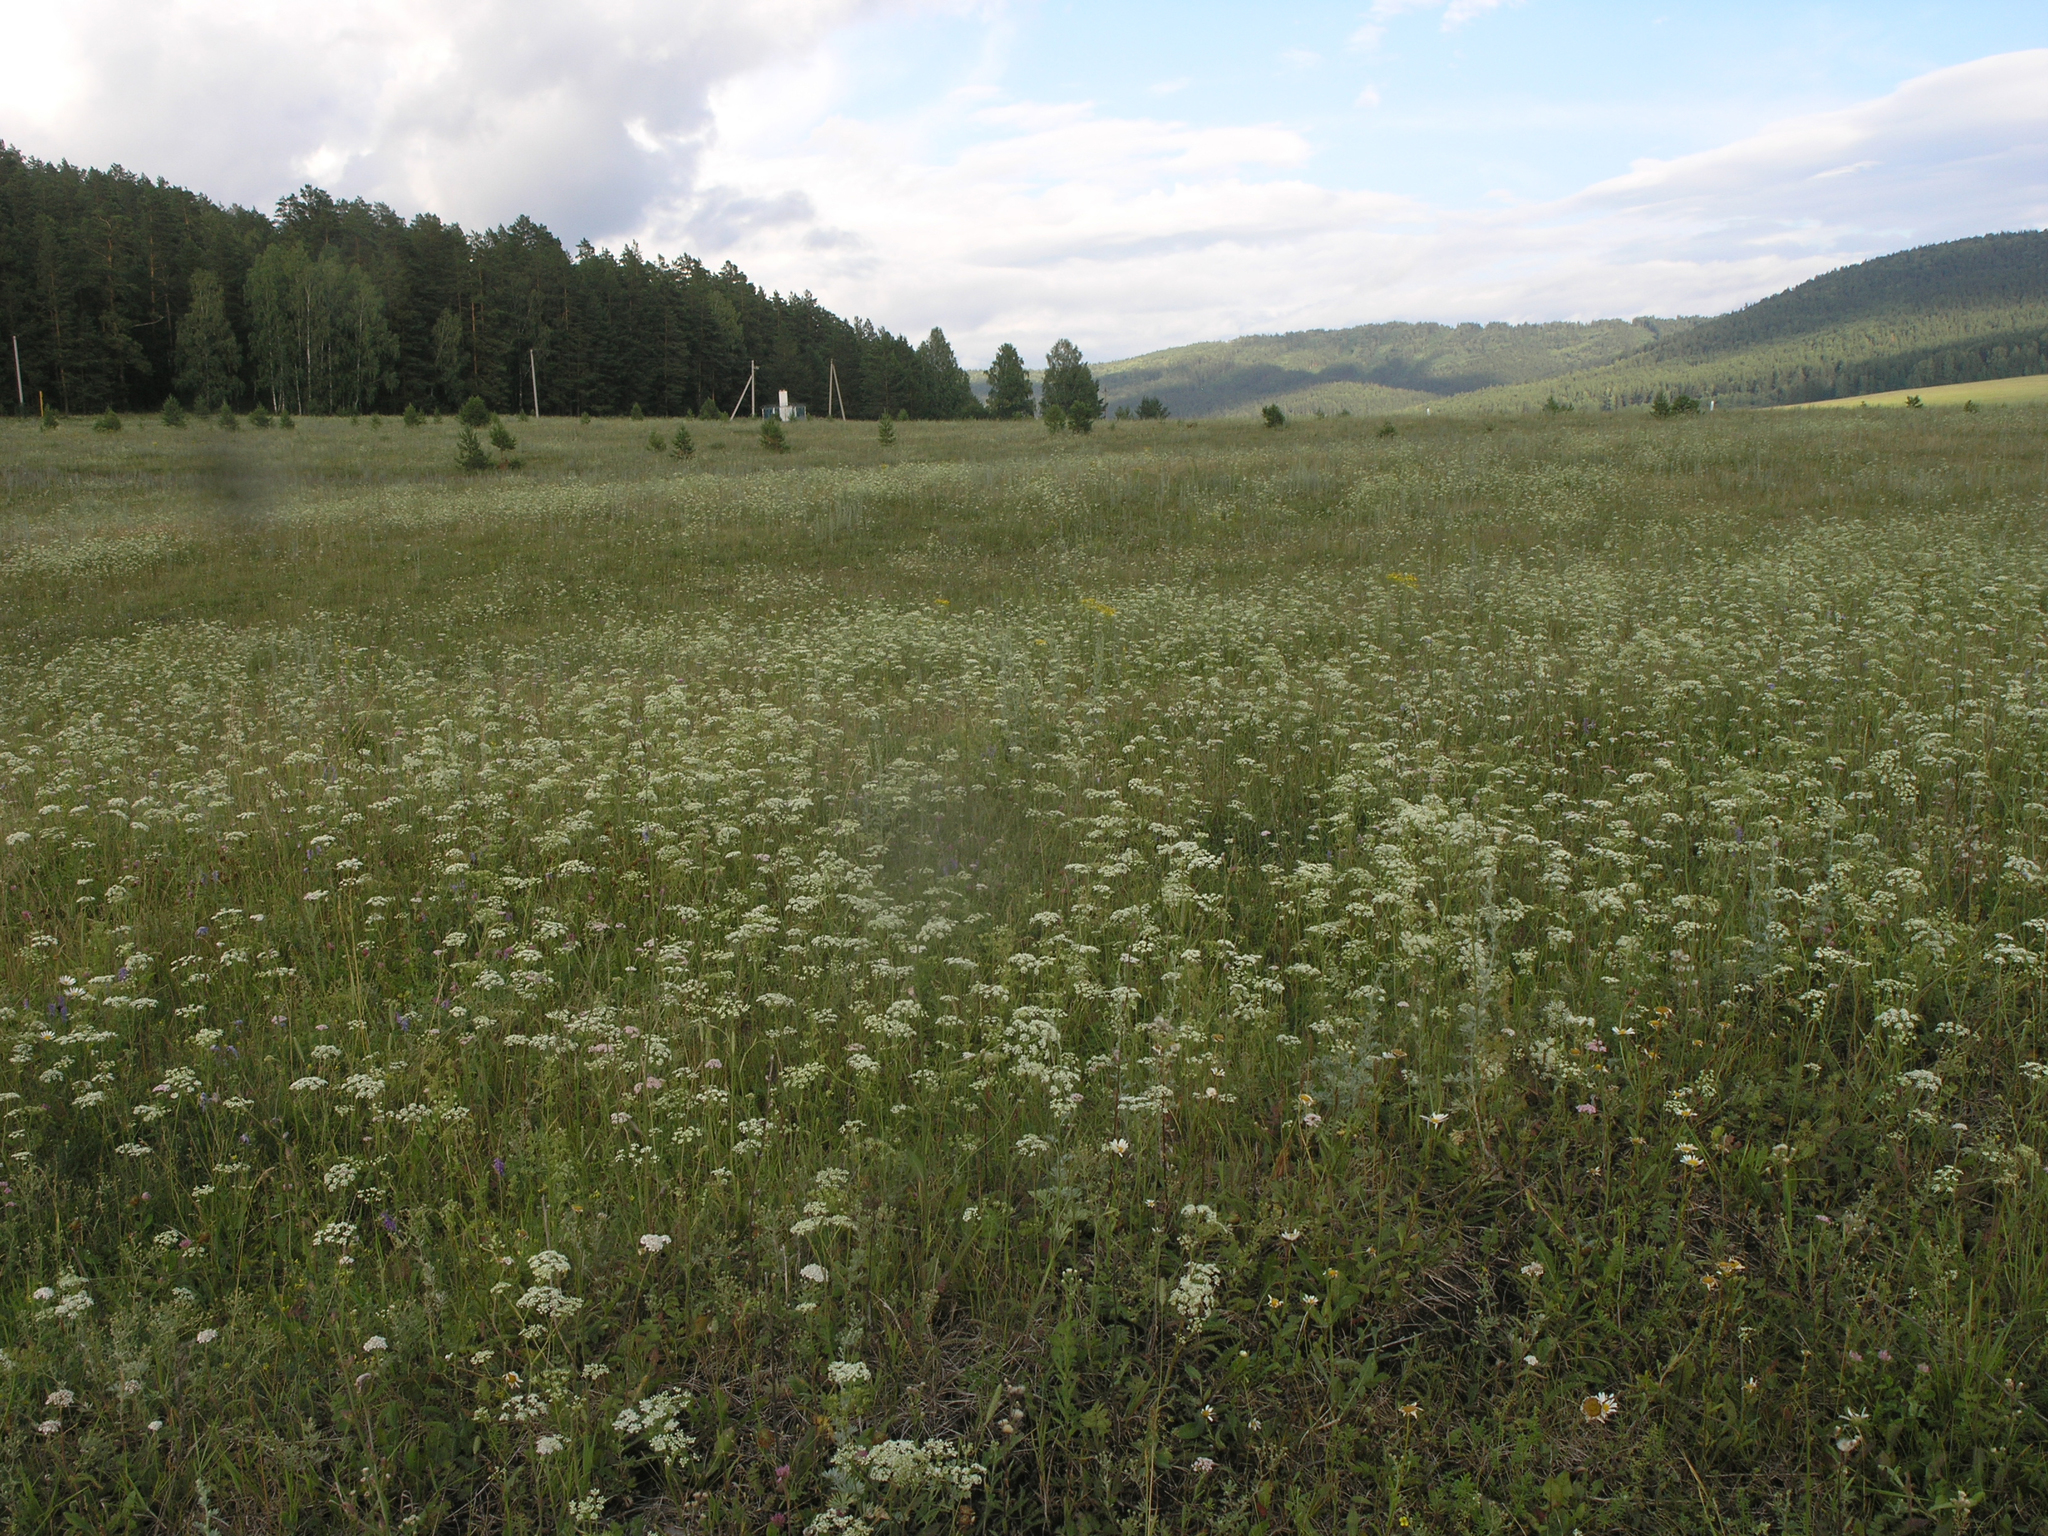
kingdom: Plantae
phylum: Tracheophyta
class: Magnoliopsida
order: Apiales
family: Apiaceae
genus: Pimpinella
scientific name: Pimpinella saxifraga
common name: Burnet-saxifrage
